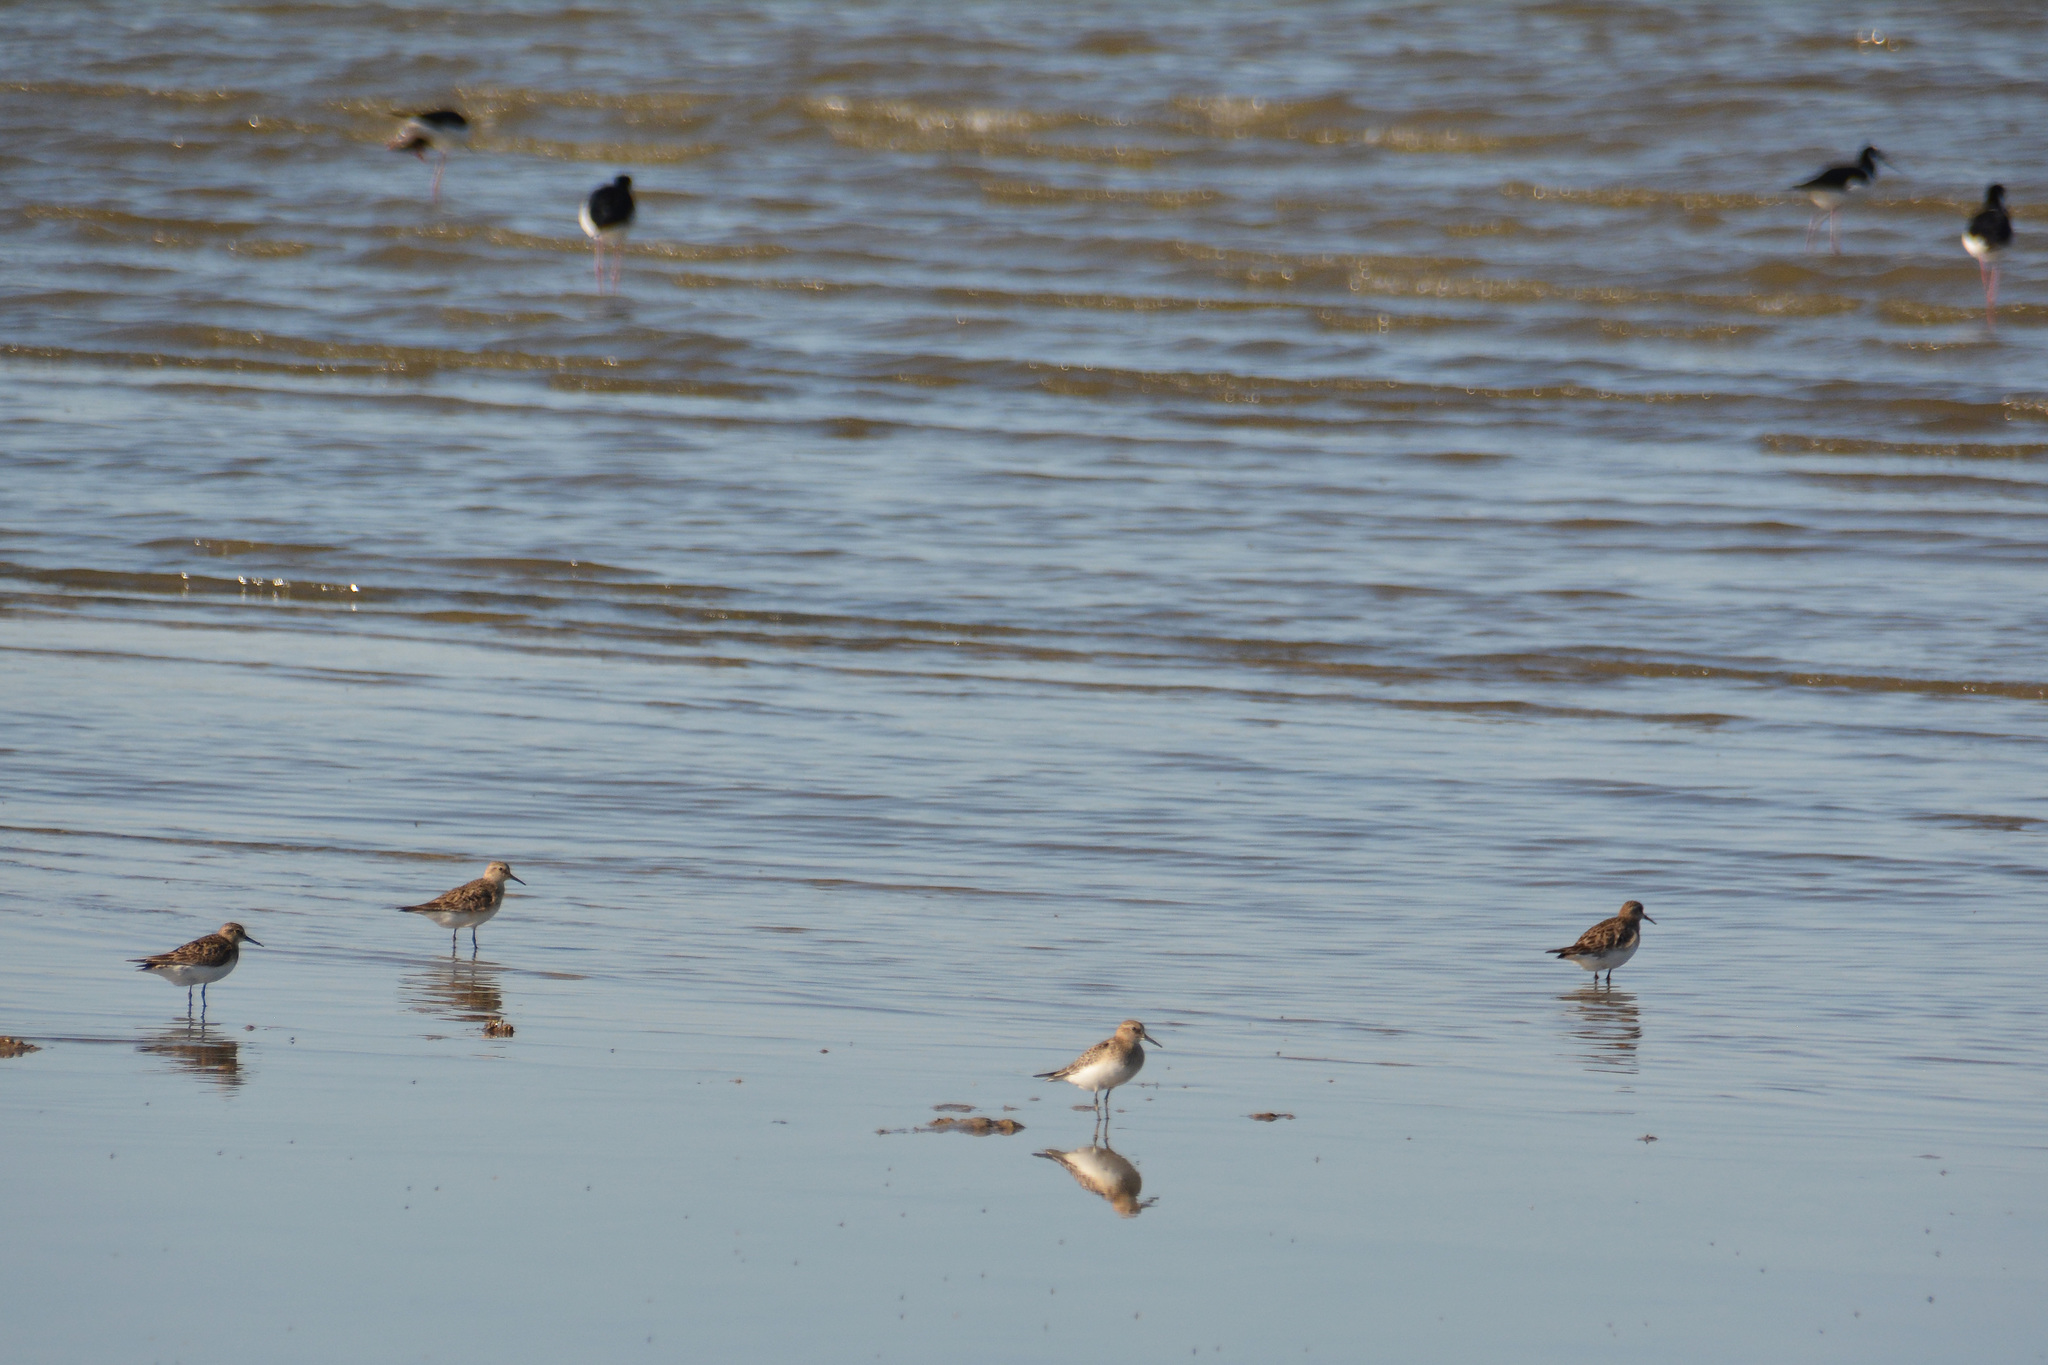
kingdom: Animalia
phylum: Chordata
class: Aves
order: Charadriiformes
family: Recurvirostridae
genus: Himantopus
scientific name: Himantopus mexicanus
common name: Black-necked stilt
